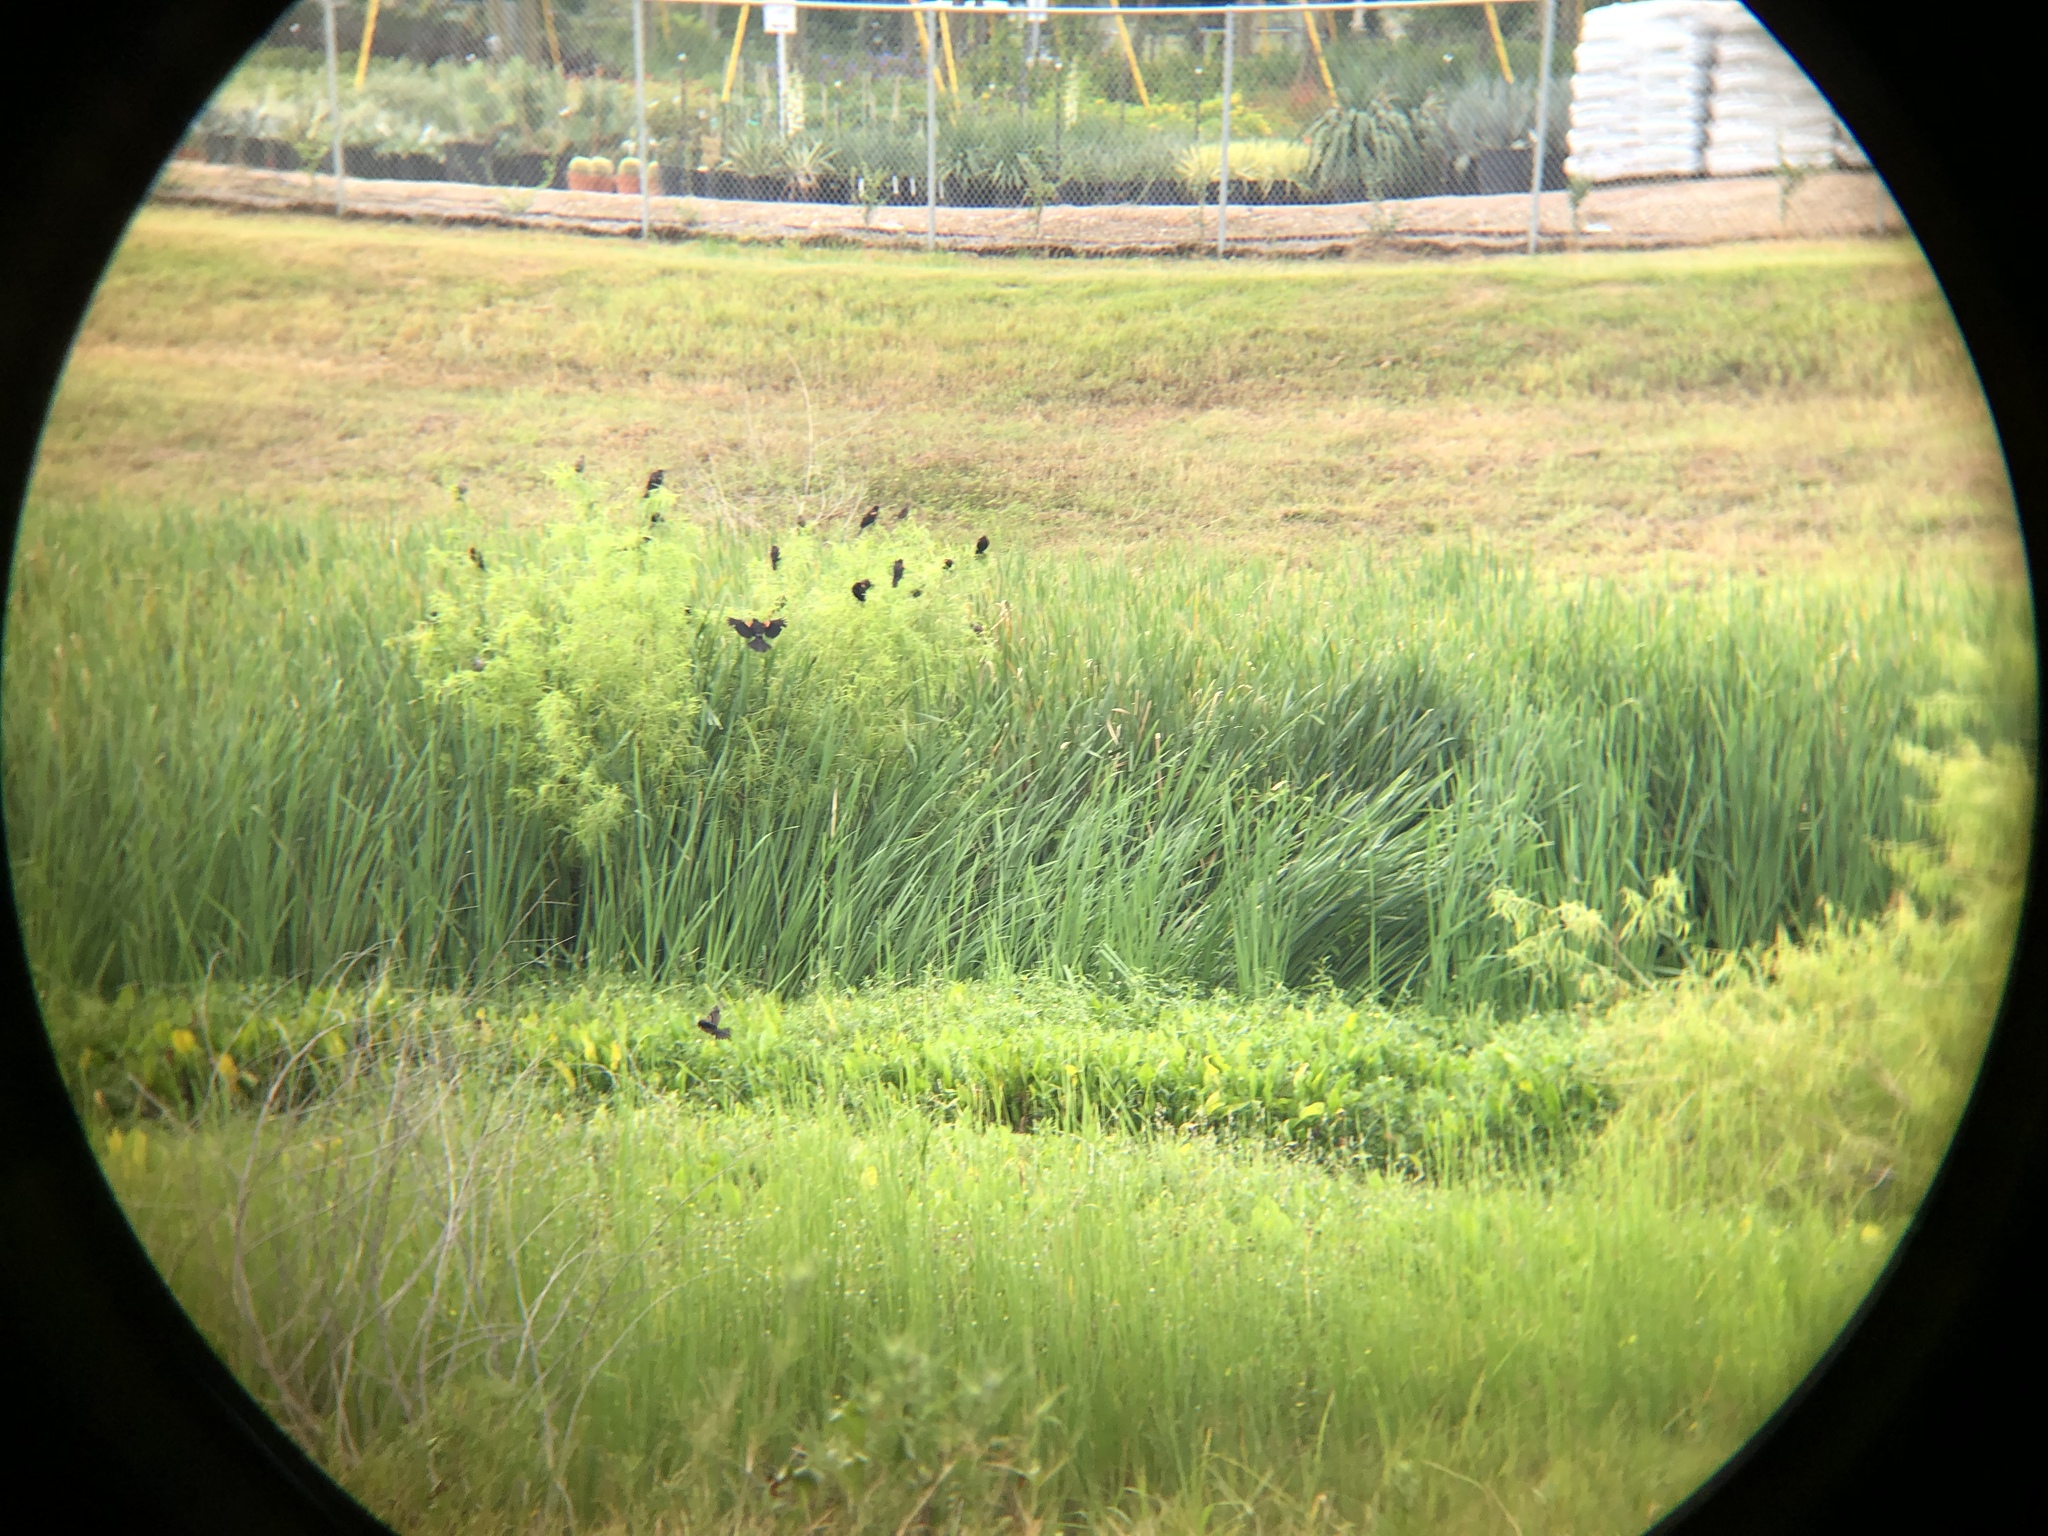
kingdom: Animalia
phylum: Chordata
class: Aves
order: Passeriformes
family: Icteridae
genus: Agelaius
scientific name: Agelaius phoeniceus
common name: Red-winged blackbird
